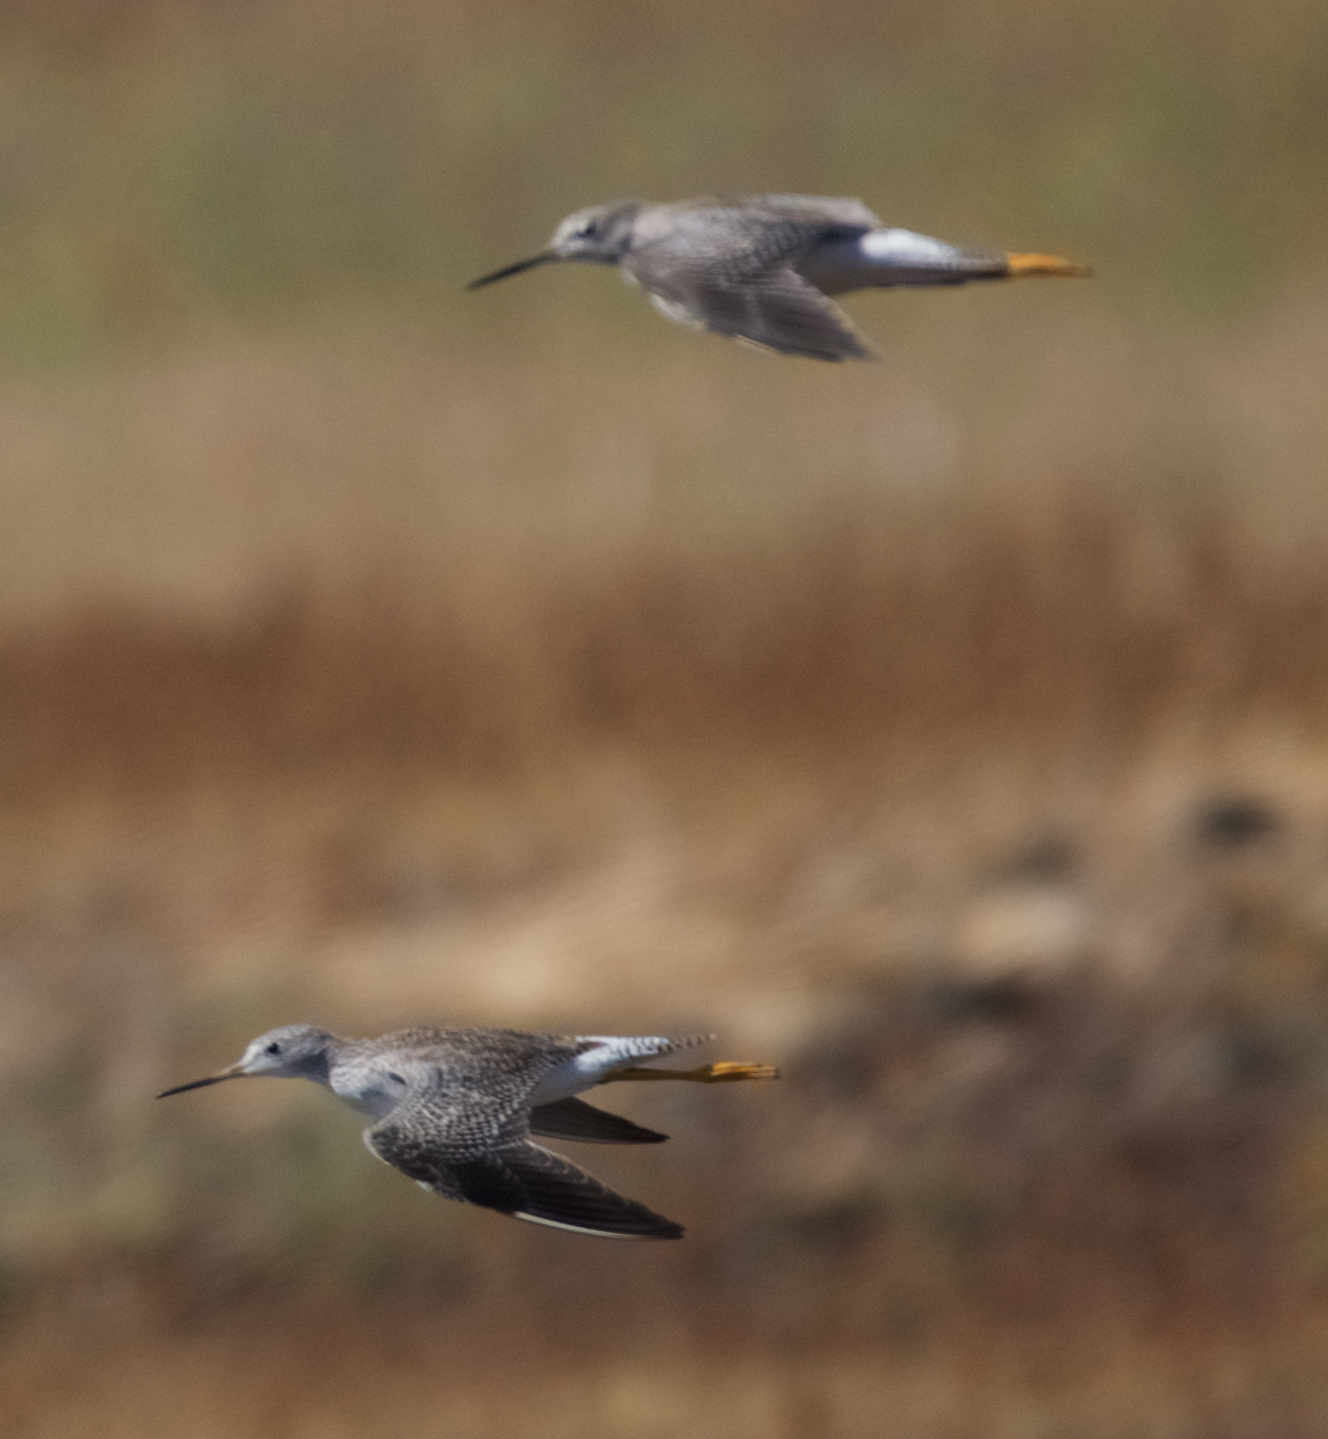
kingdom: Animalia
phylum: Chordata
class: Aves
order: Charadriiformes
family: Scolopacidae
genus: Tringa
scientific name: Tringa melanoleuca
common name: Greater yellowlegs
